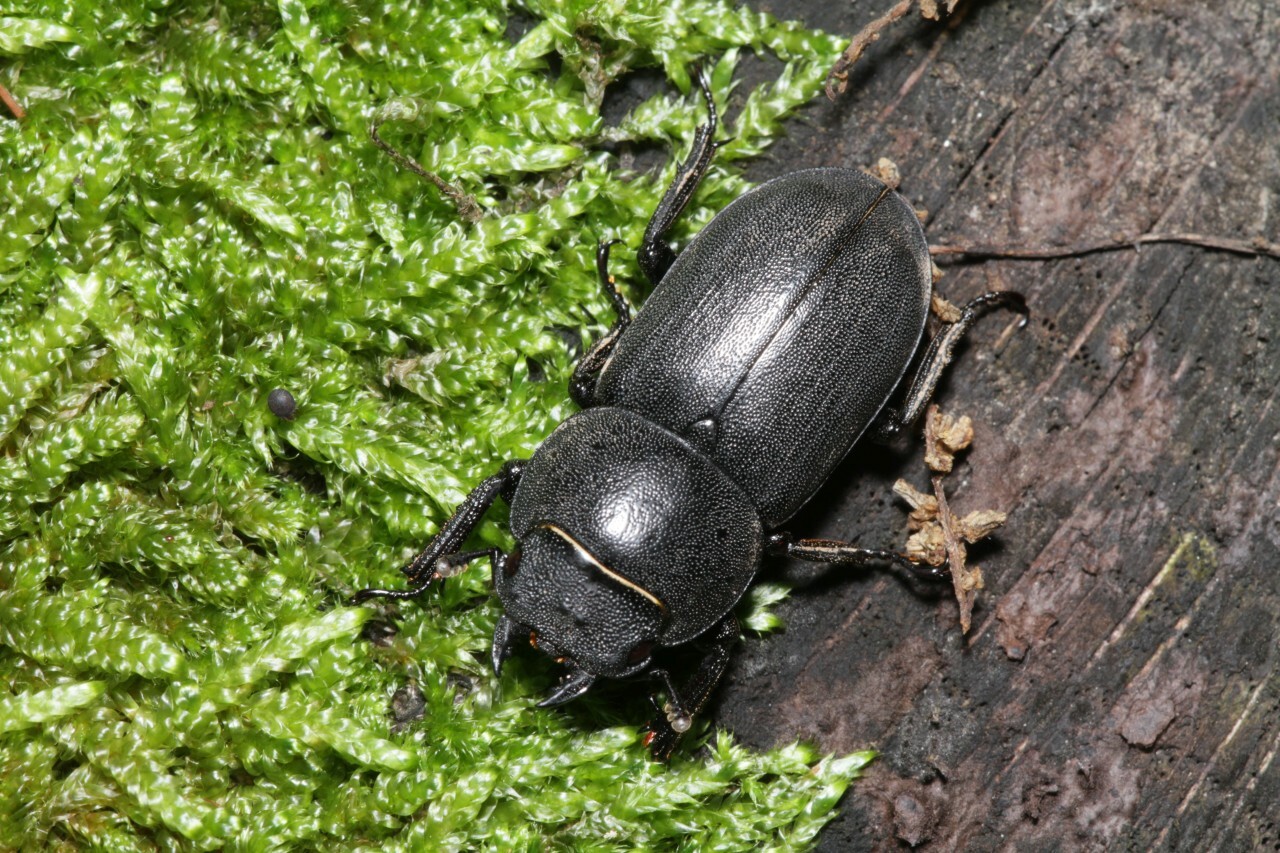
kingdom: Animalia
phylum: Arthropoda
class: Insecta
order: Coleoptera
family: Lucanidae
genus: Dorcus
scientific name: Dorcus parallelipipedus
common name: Lesser stag beetle
